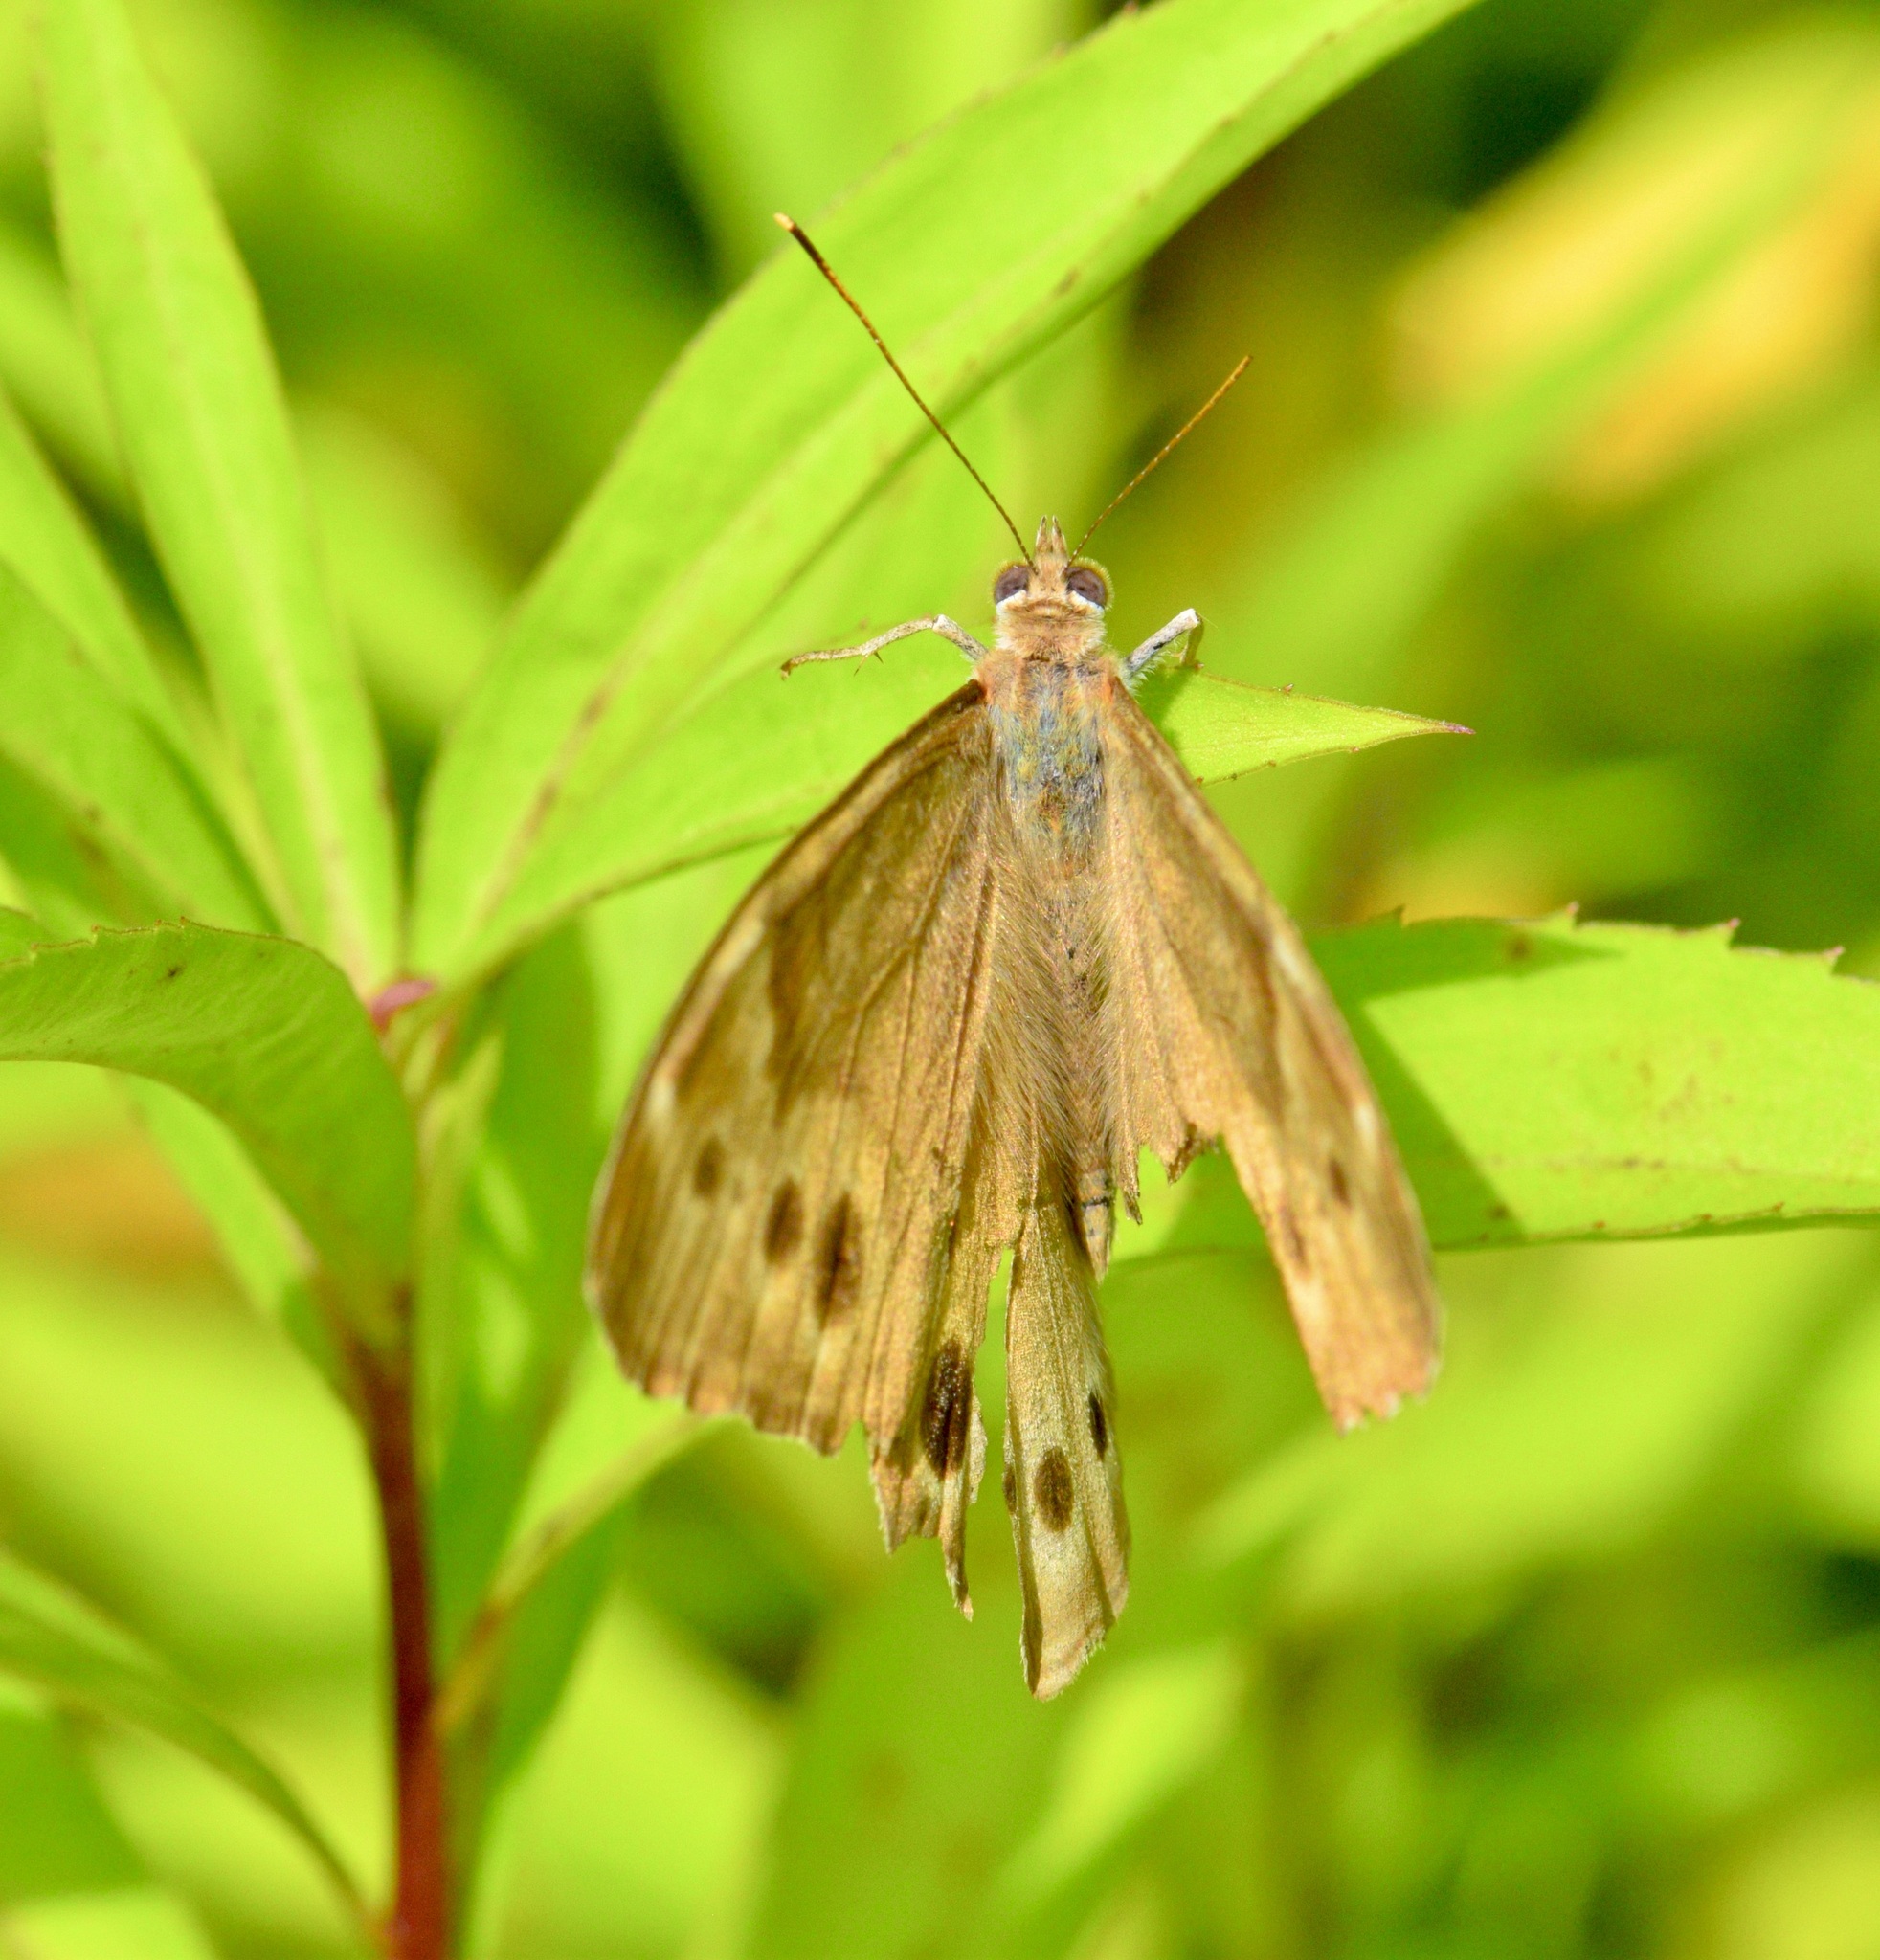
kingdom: Animalia
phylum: Arthropoda
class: Insecta
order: Lepidoptera
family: Nymphalidae
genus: Lethe
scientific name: Lethe anthedon
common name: Northern pearly-eye
